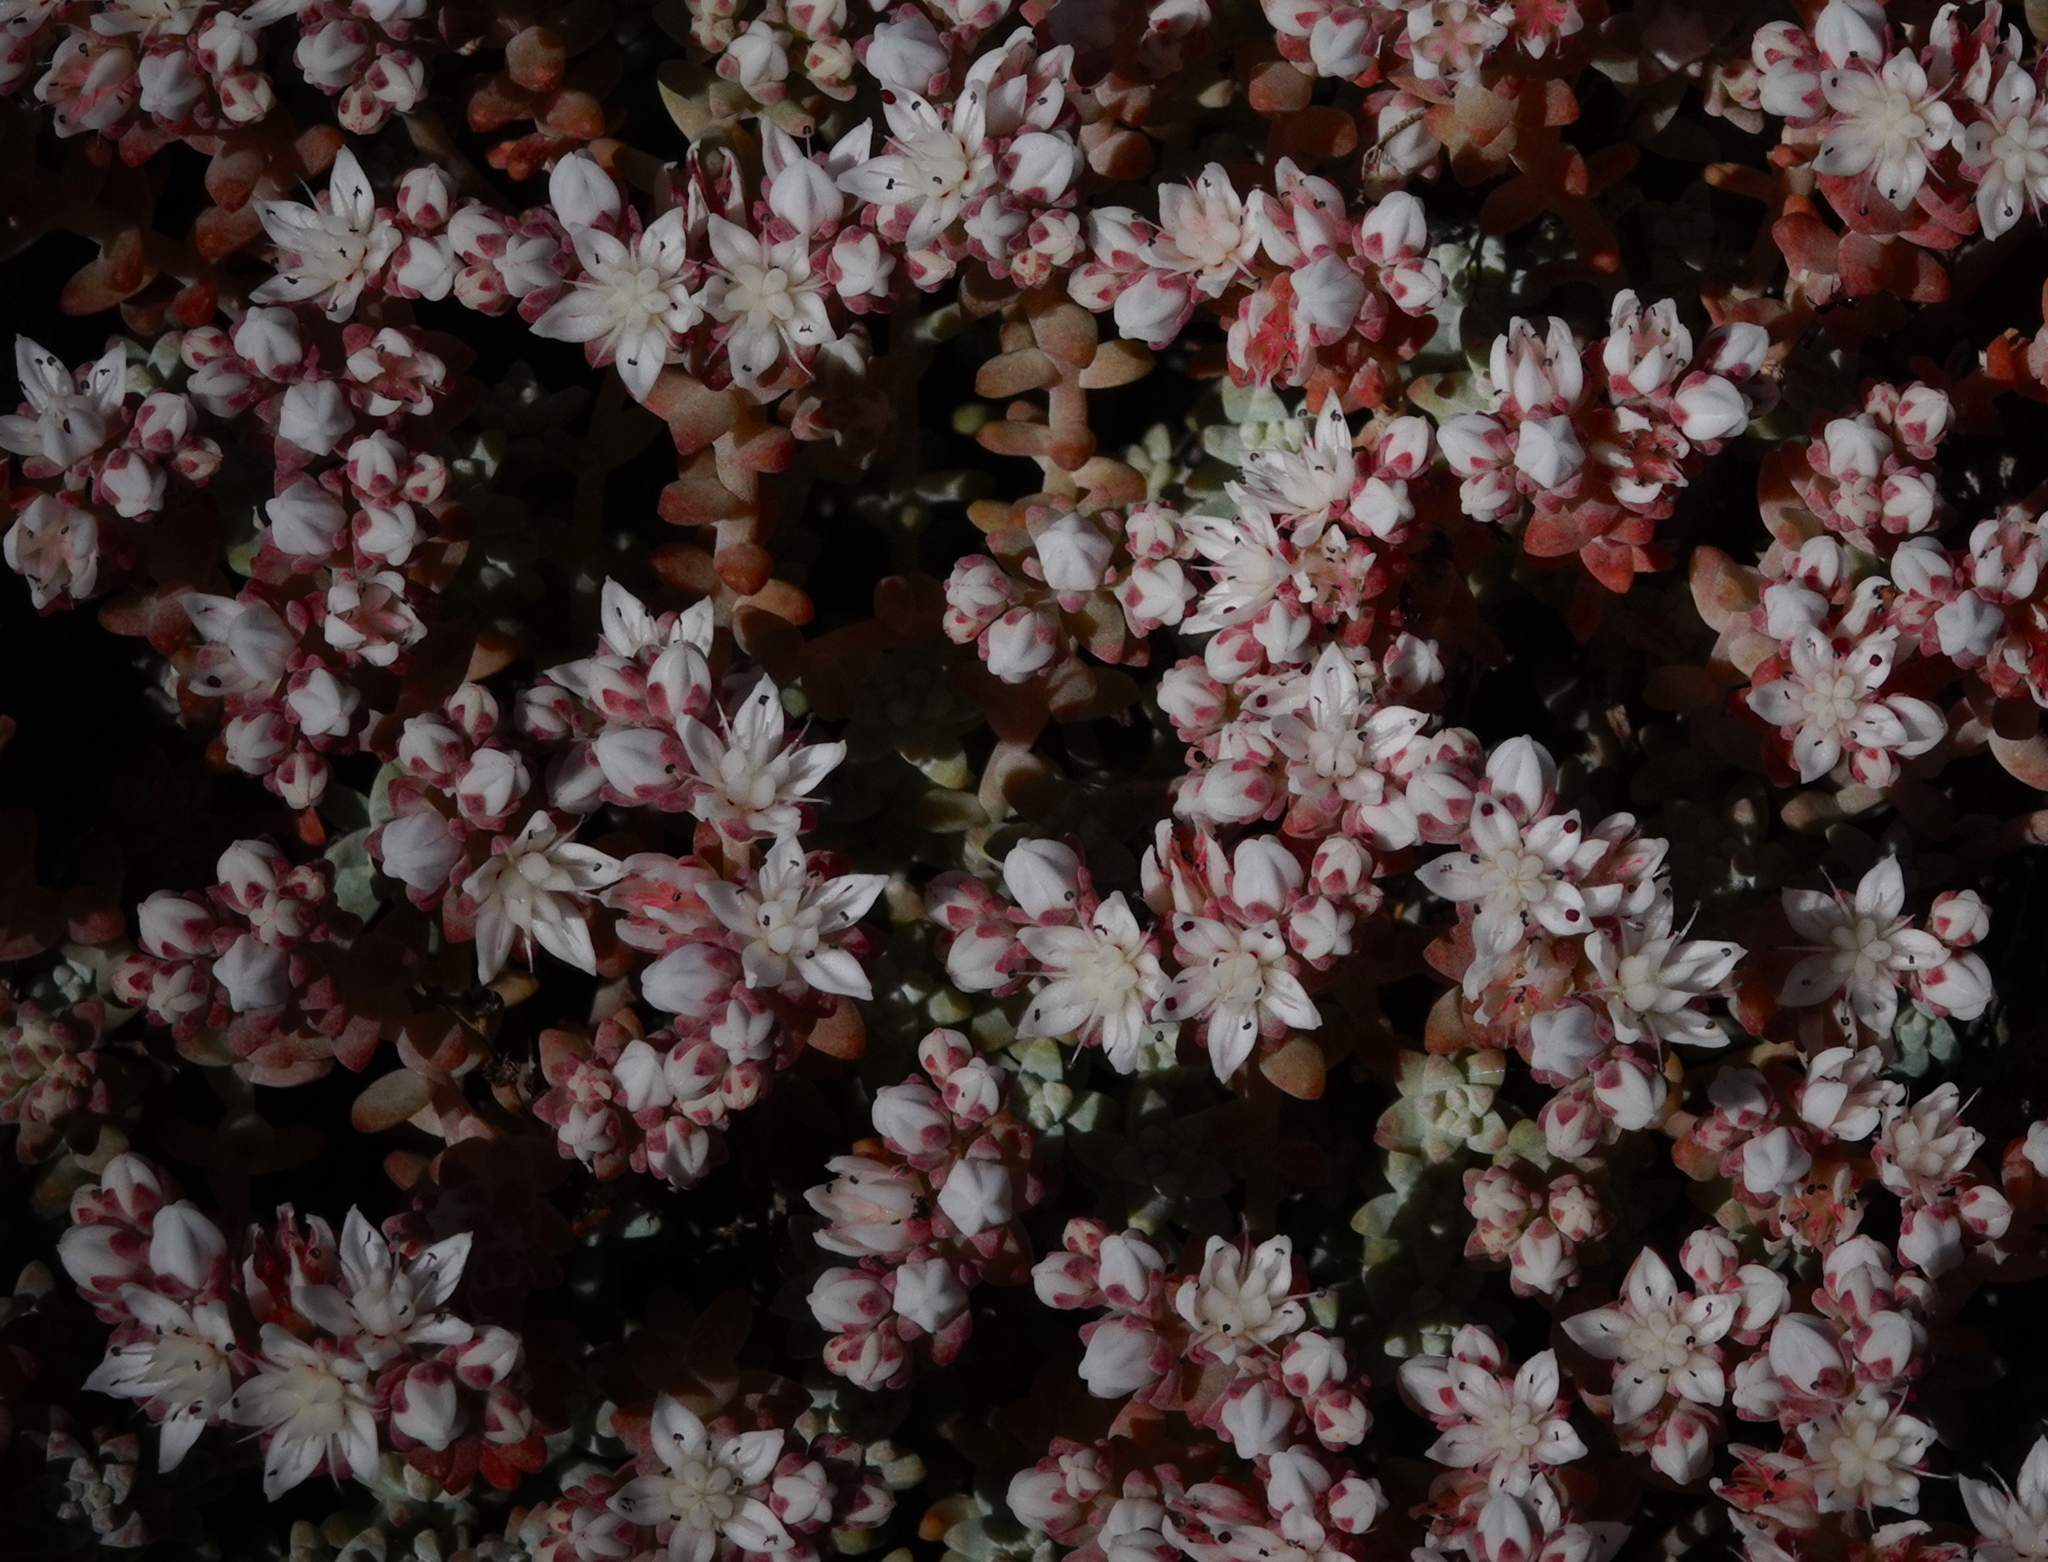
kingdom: Plantae
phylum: Tracheophyta
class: Magnoliopsida
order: Saxifragales
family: Crassulaceae
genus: Sedum
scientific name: Sedum farinosum
